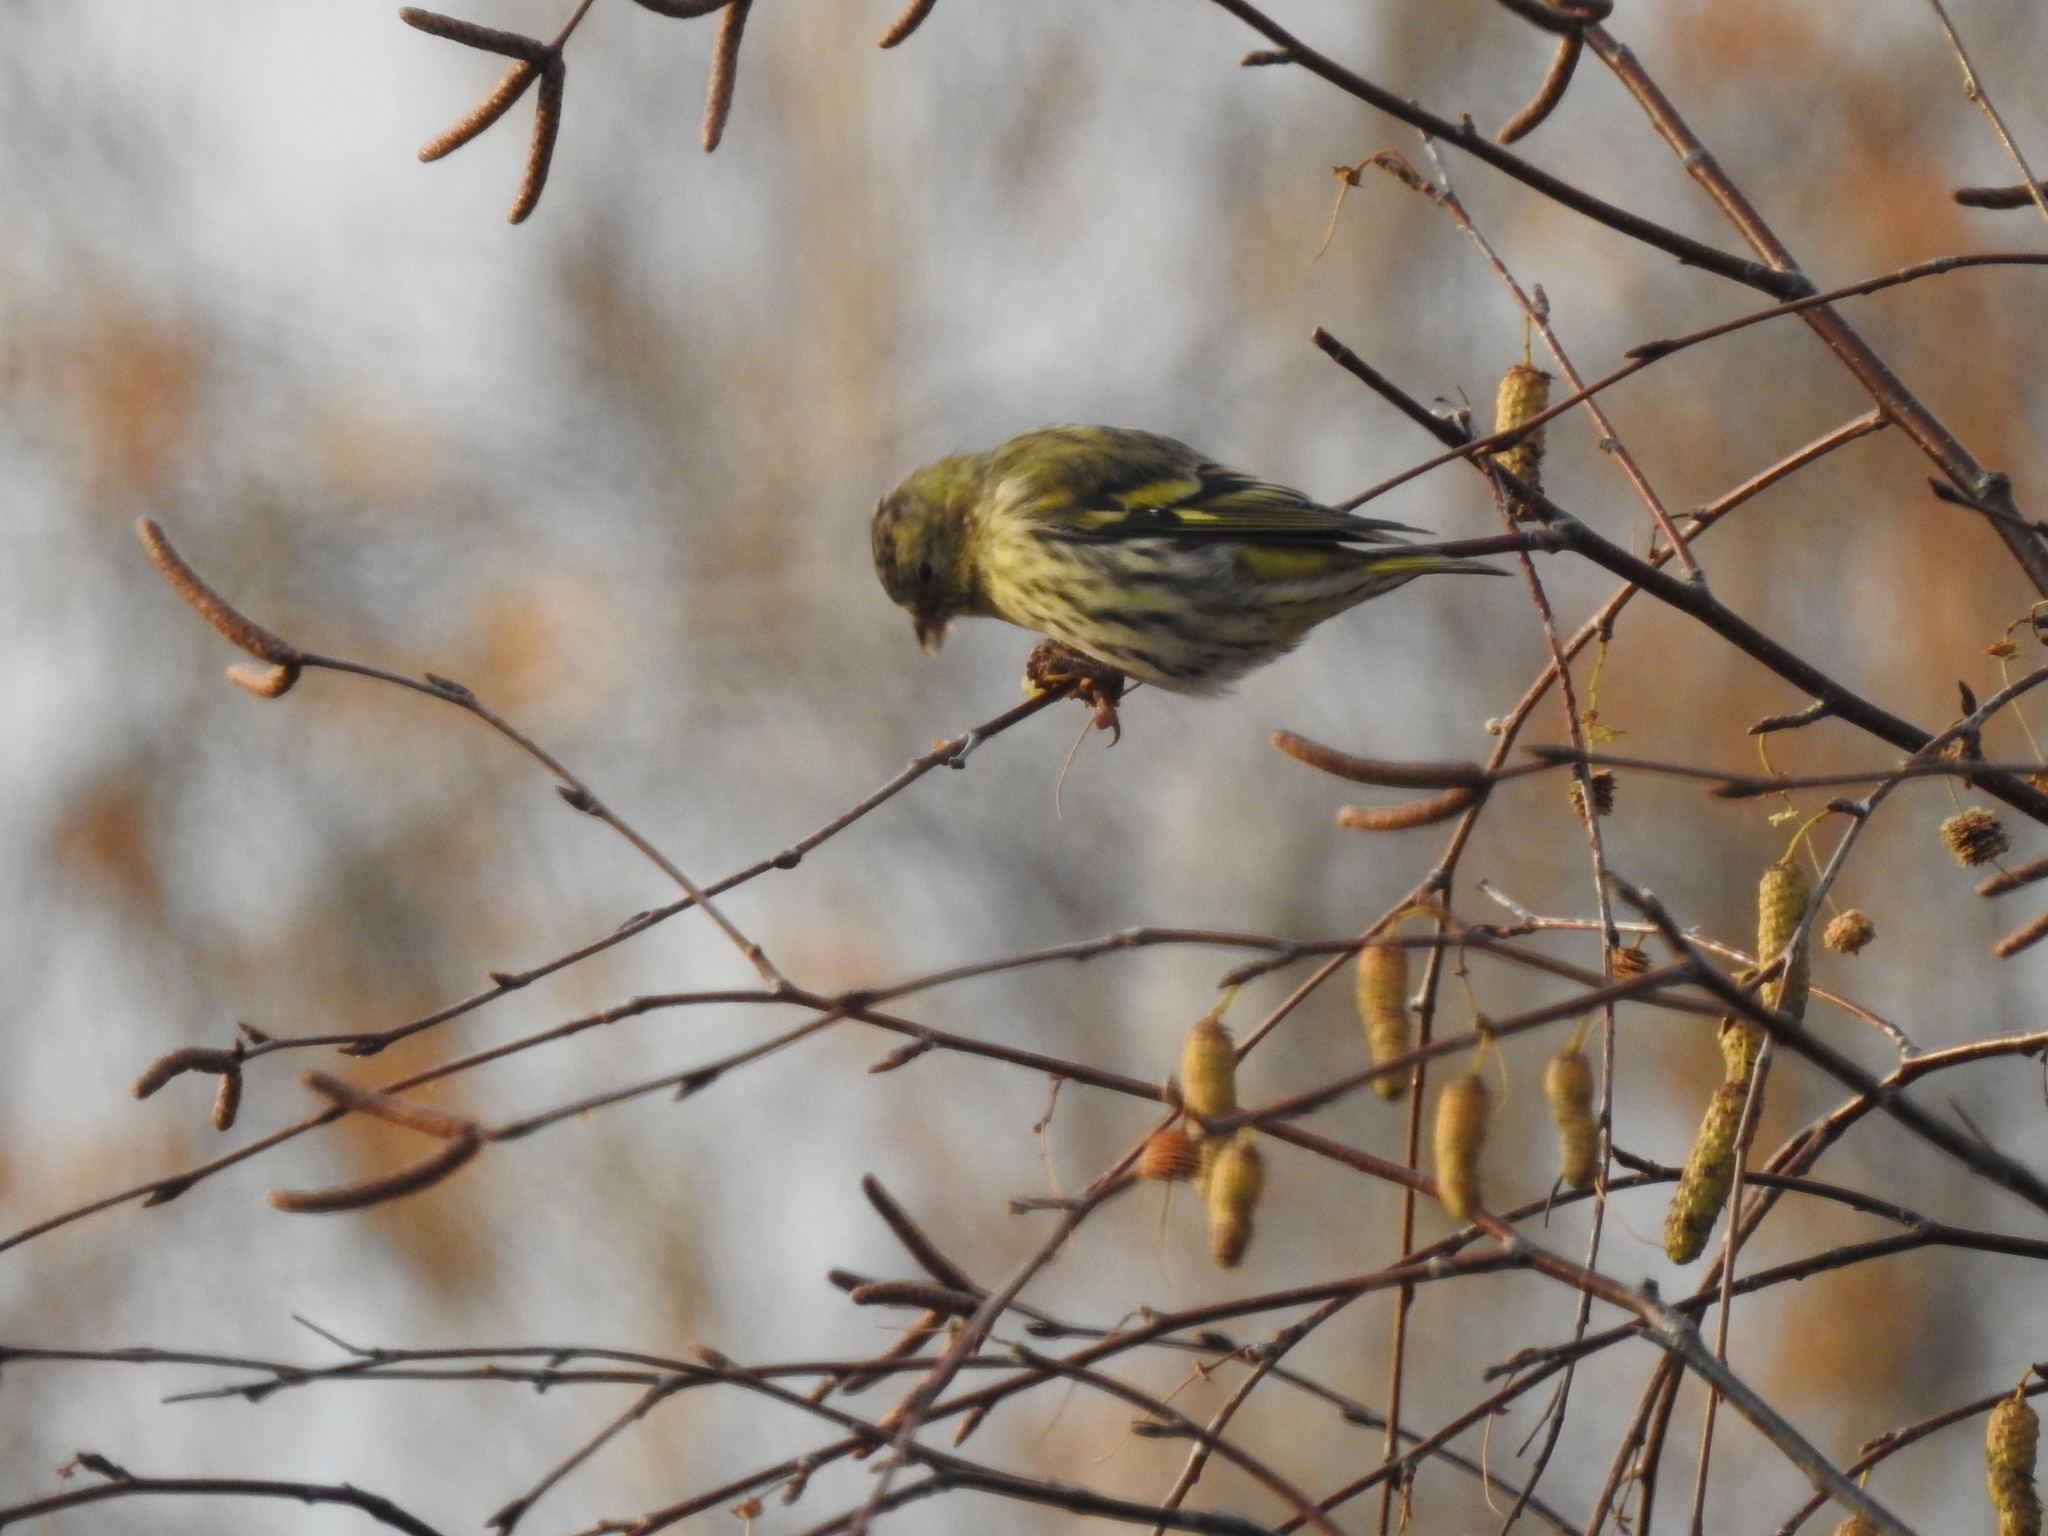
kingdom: Animalia
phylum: Chordata
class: Aves
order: Passeriformes
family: Fringillidae
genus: Spinus
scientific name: Spinus spinus
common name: Eurasian siskin
